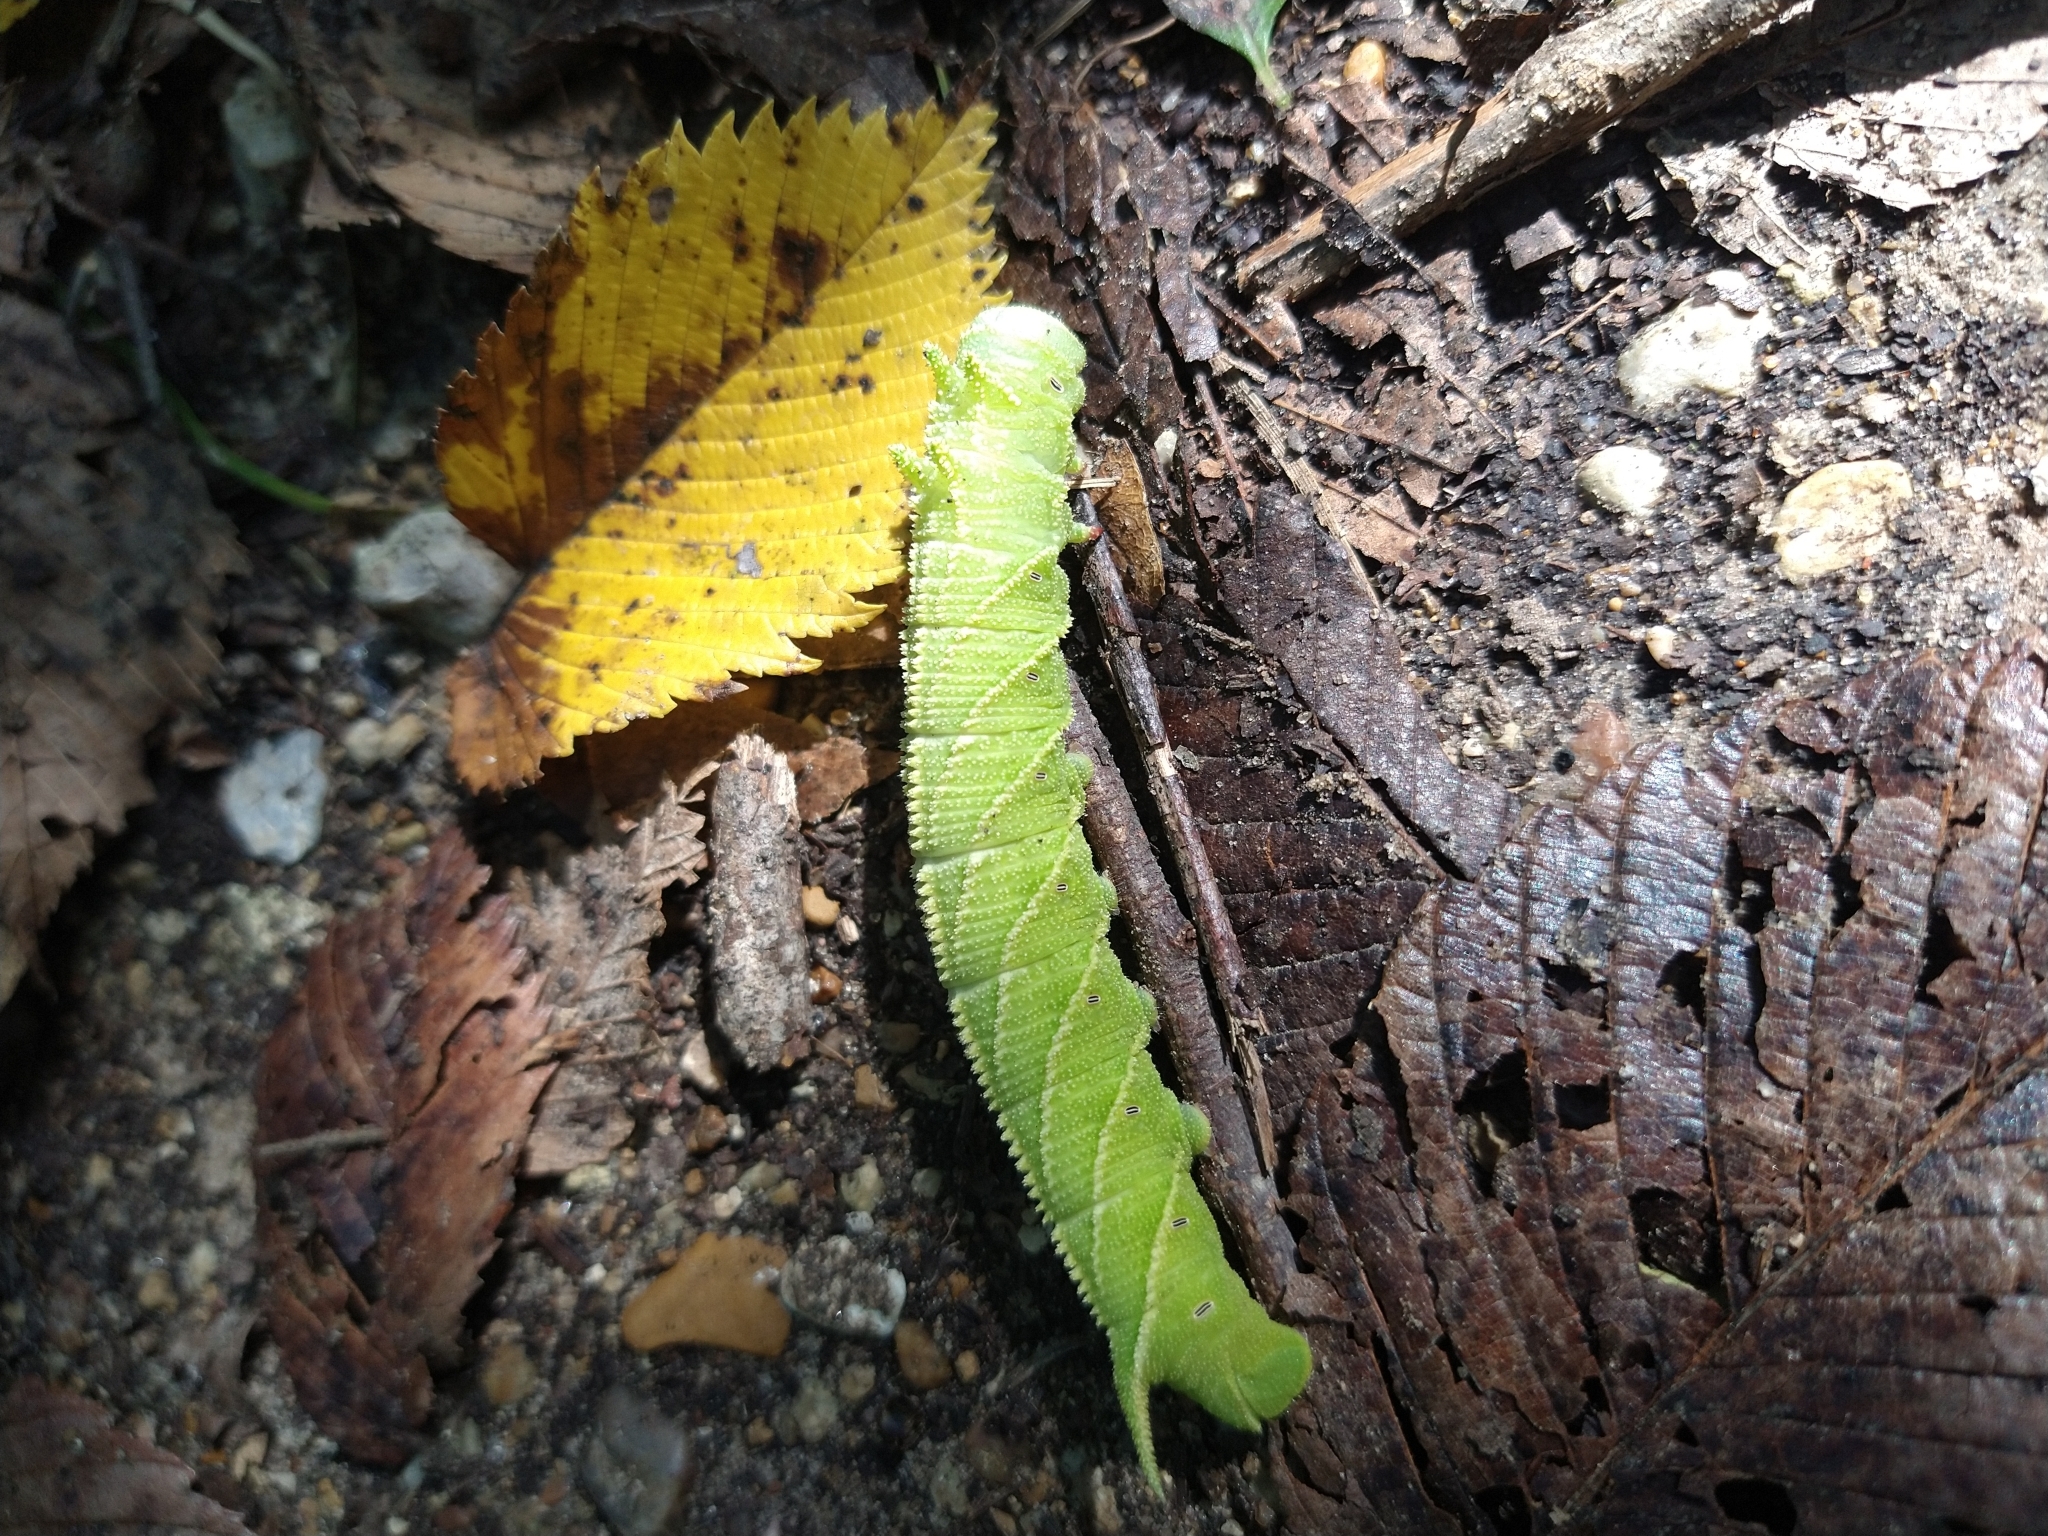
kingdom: Animalia
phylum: Arthropoda
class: Insecta
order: Lepidoptera
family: Sphingidae
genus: Ceratomia
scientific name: Ceratomia amyntor
